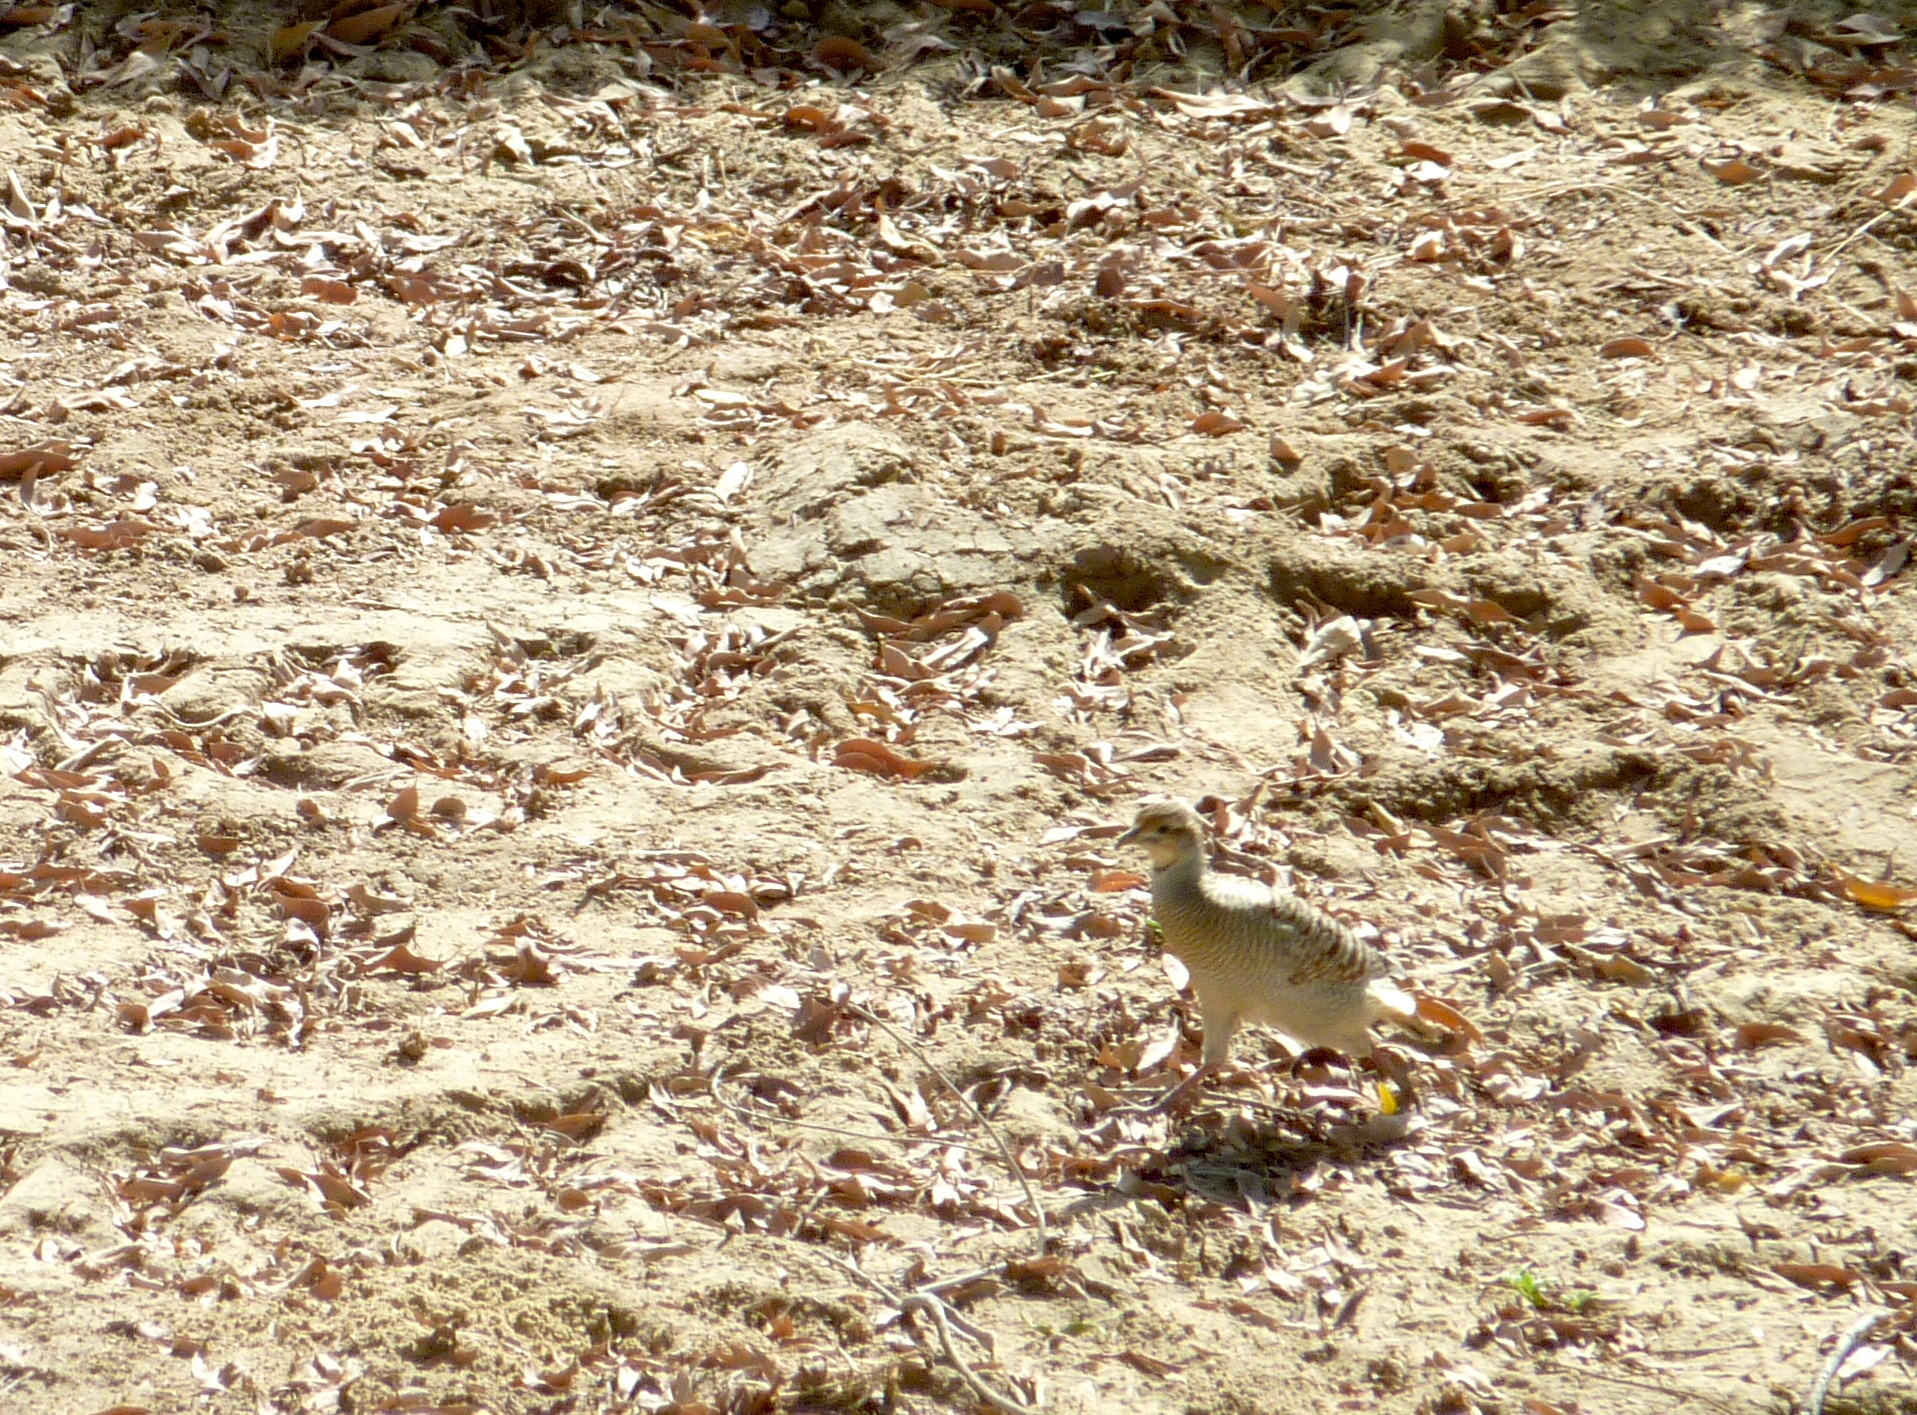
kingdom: Animalia
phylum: Chordata
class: Aves
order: Galliformes
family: Phasianidae
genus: Ortygornis
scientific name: Ortygornis pondicerianus
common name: Grey francolin
